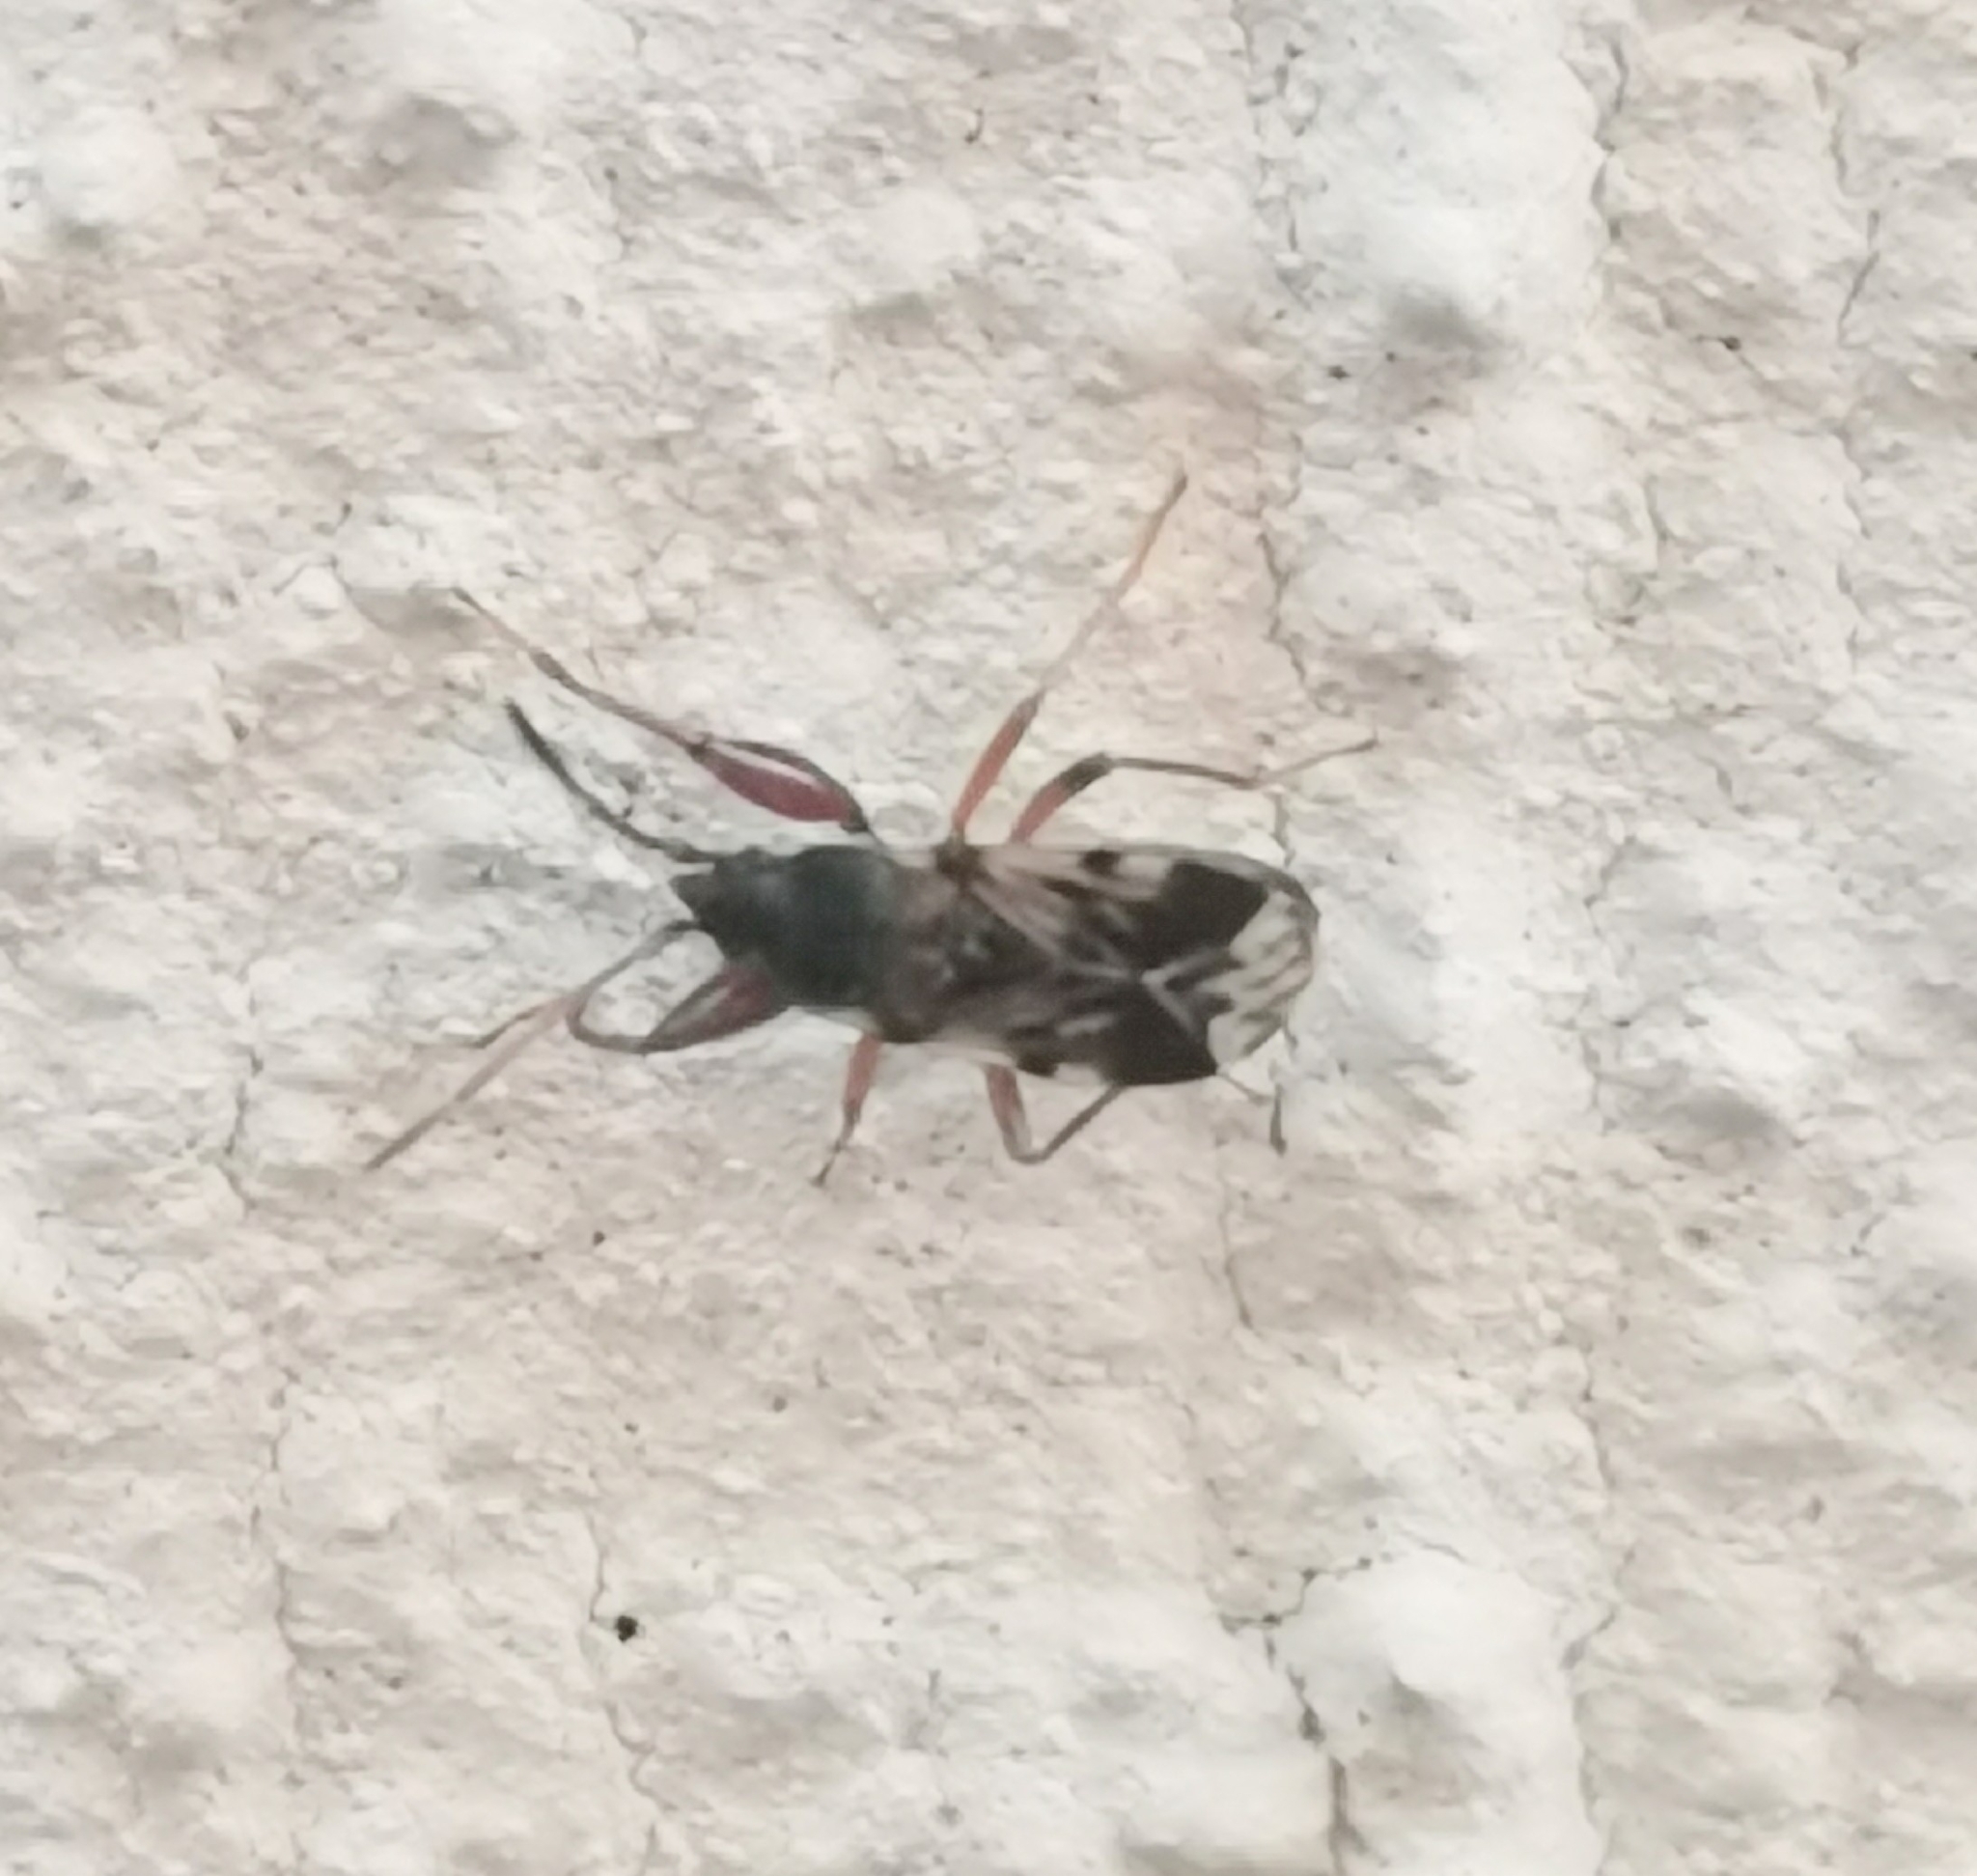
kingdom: Animalia
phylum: Arthropoda
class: Insecta
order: Hemiptera
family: Rhyparochromidae
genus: Scolopostethus
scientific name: Scolopostethus pictus
